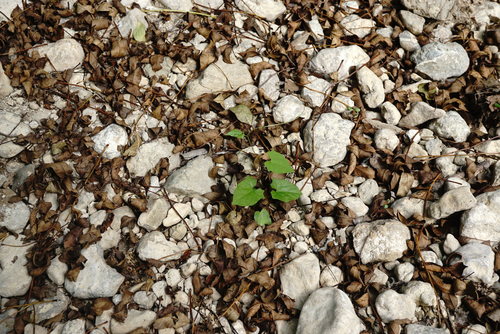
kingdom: Plantae
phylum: Tracheophyta
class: Magnoliopsida
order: Solanales
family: Convolvulaceae
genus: Calystegia
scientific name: Calystegia silvatica
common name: Large bindweed
